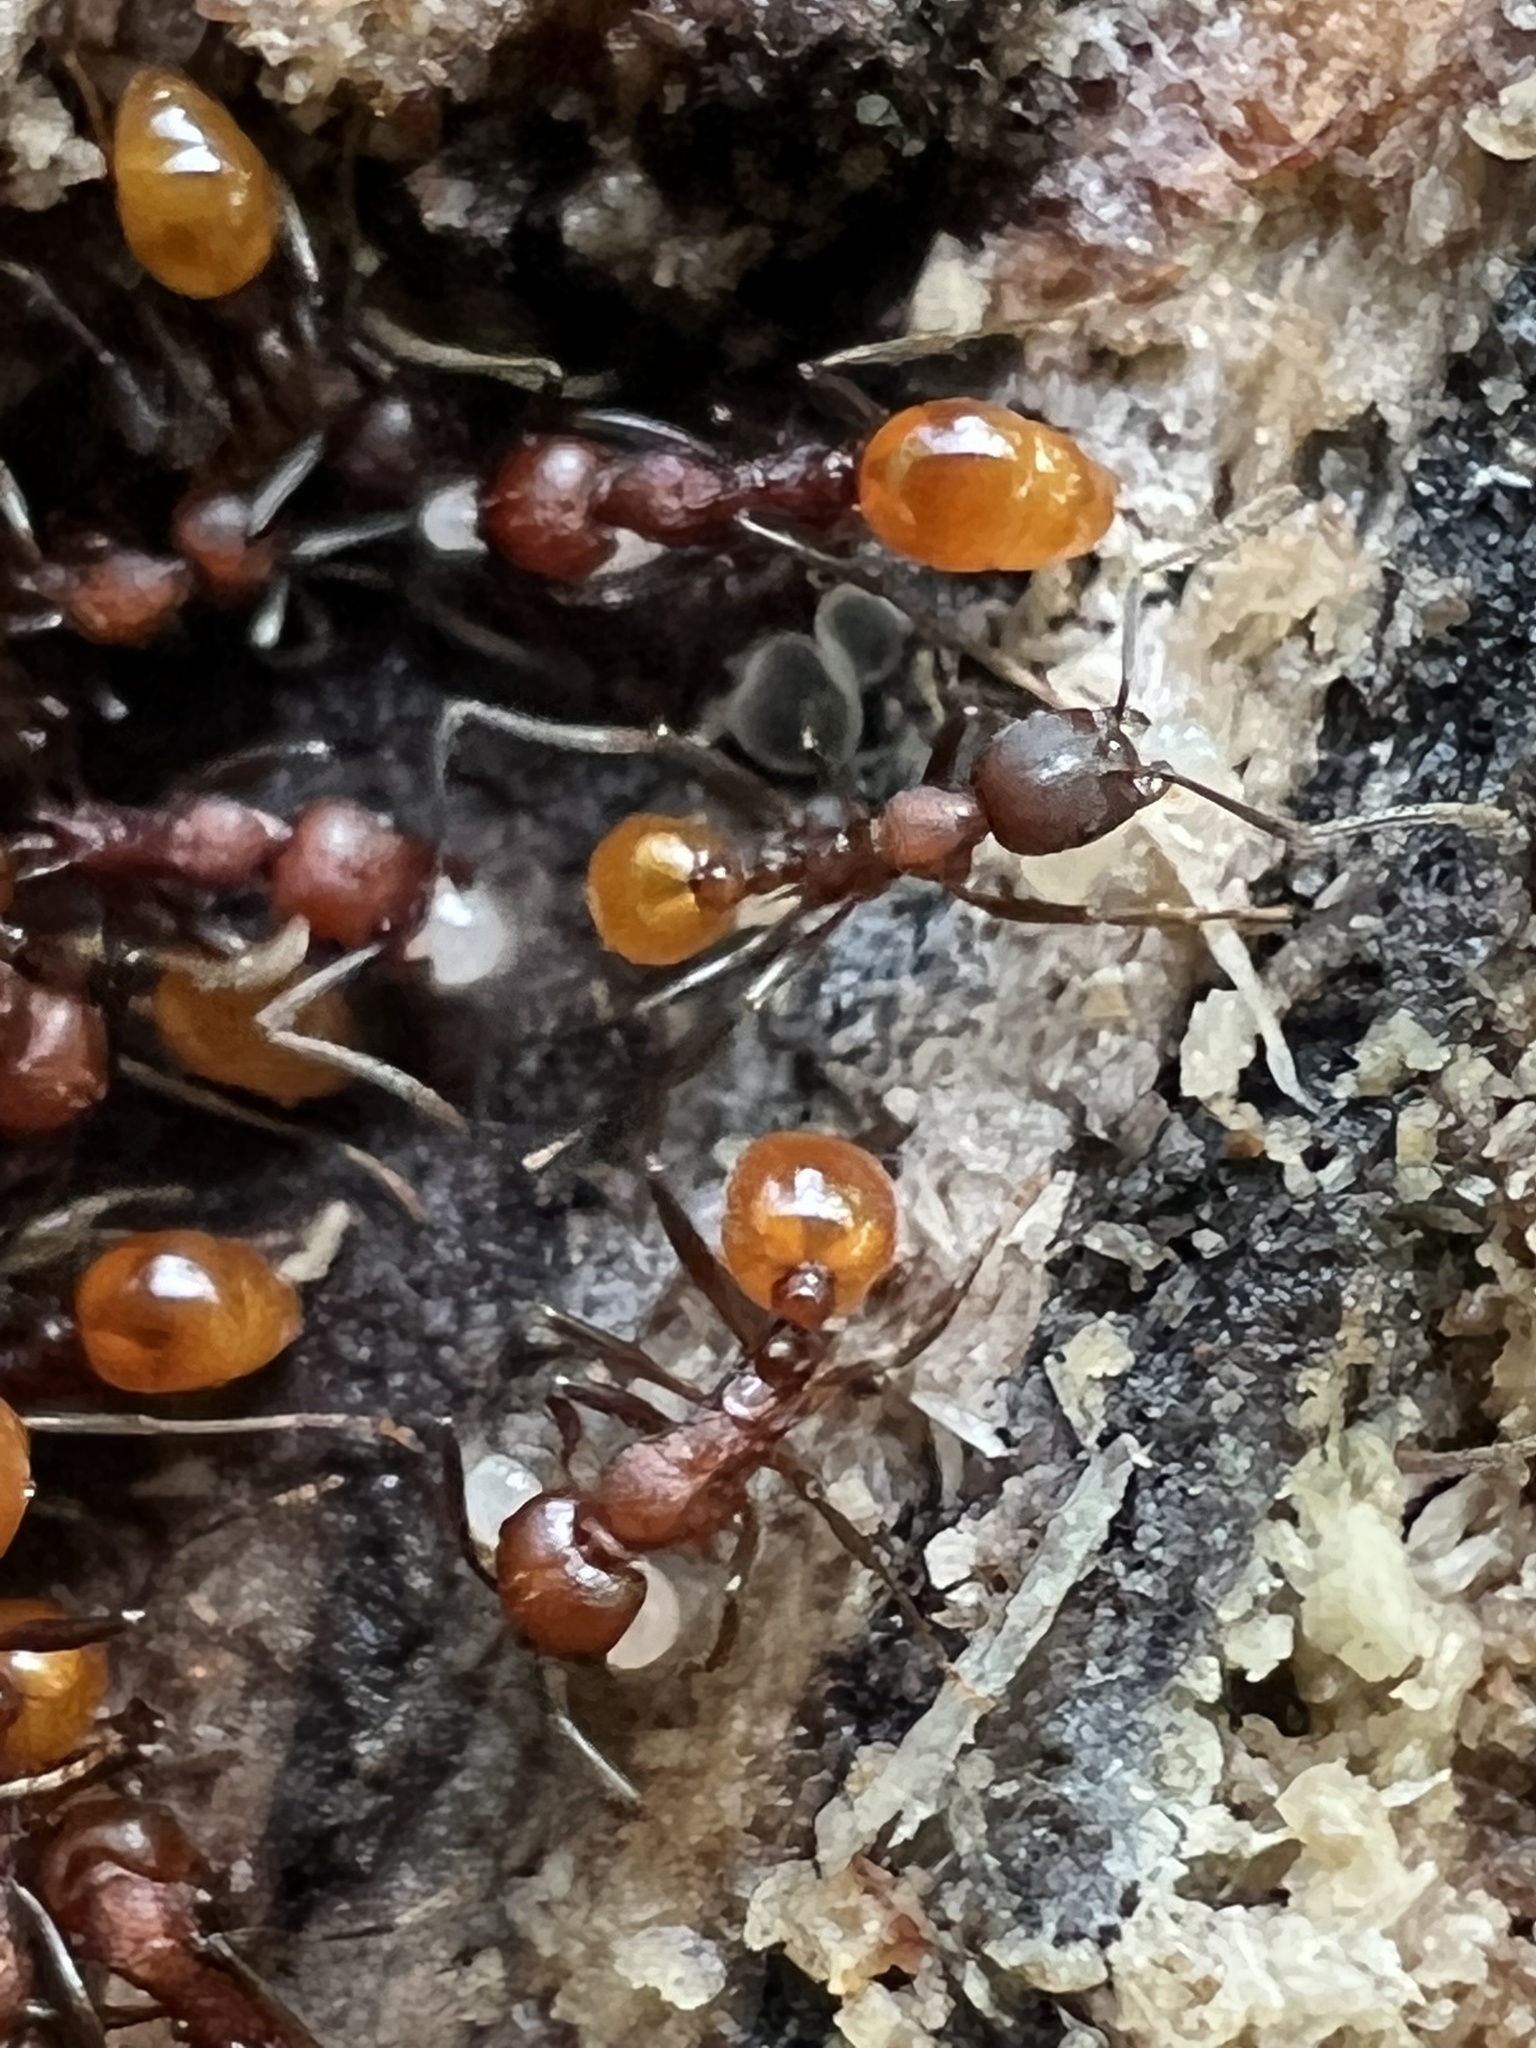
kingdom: Animalia
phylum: Arthropoda
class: Insecta
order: Hymenoptera
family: Formicidae
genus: Aphaenogaster
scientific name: Aphaenogaster tennesseensis
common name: Tennessee thread-waisted ant
